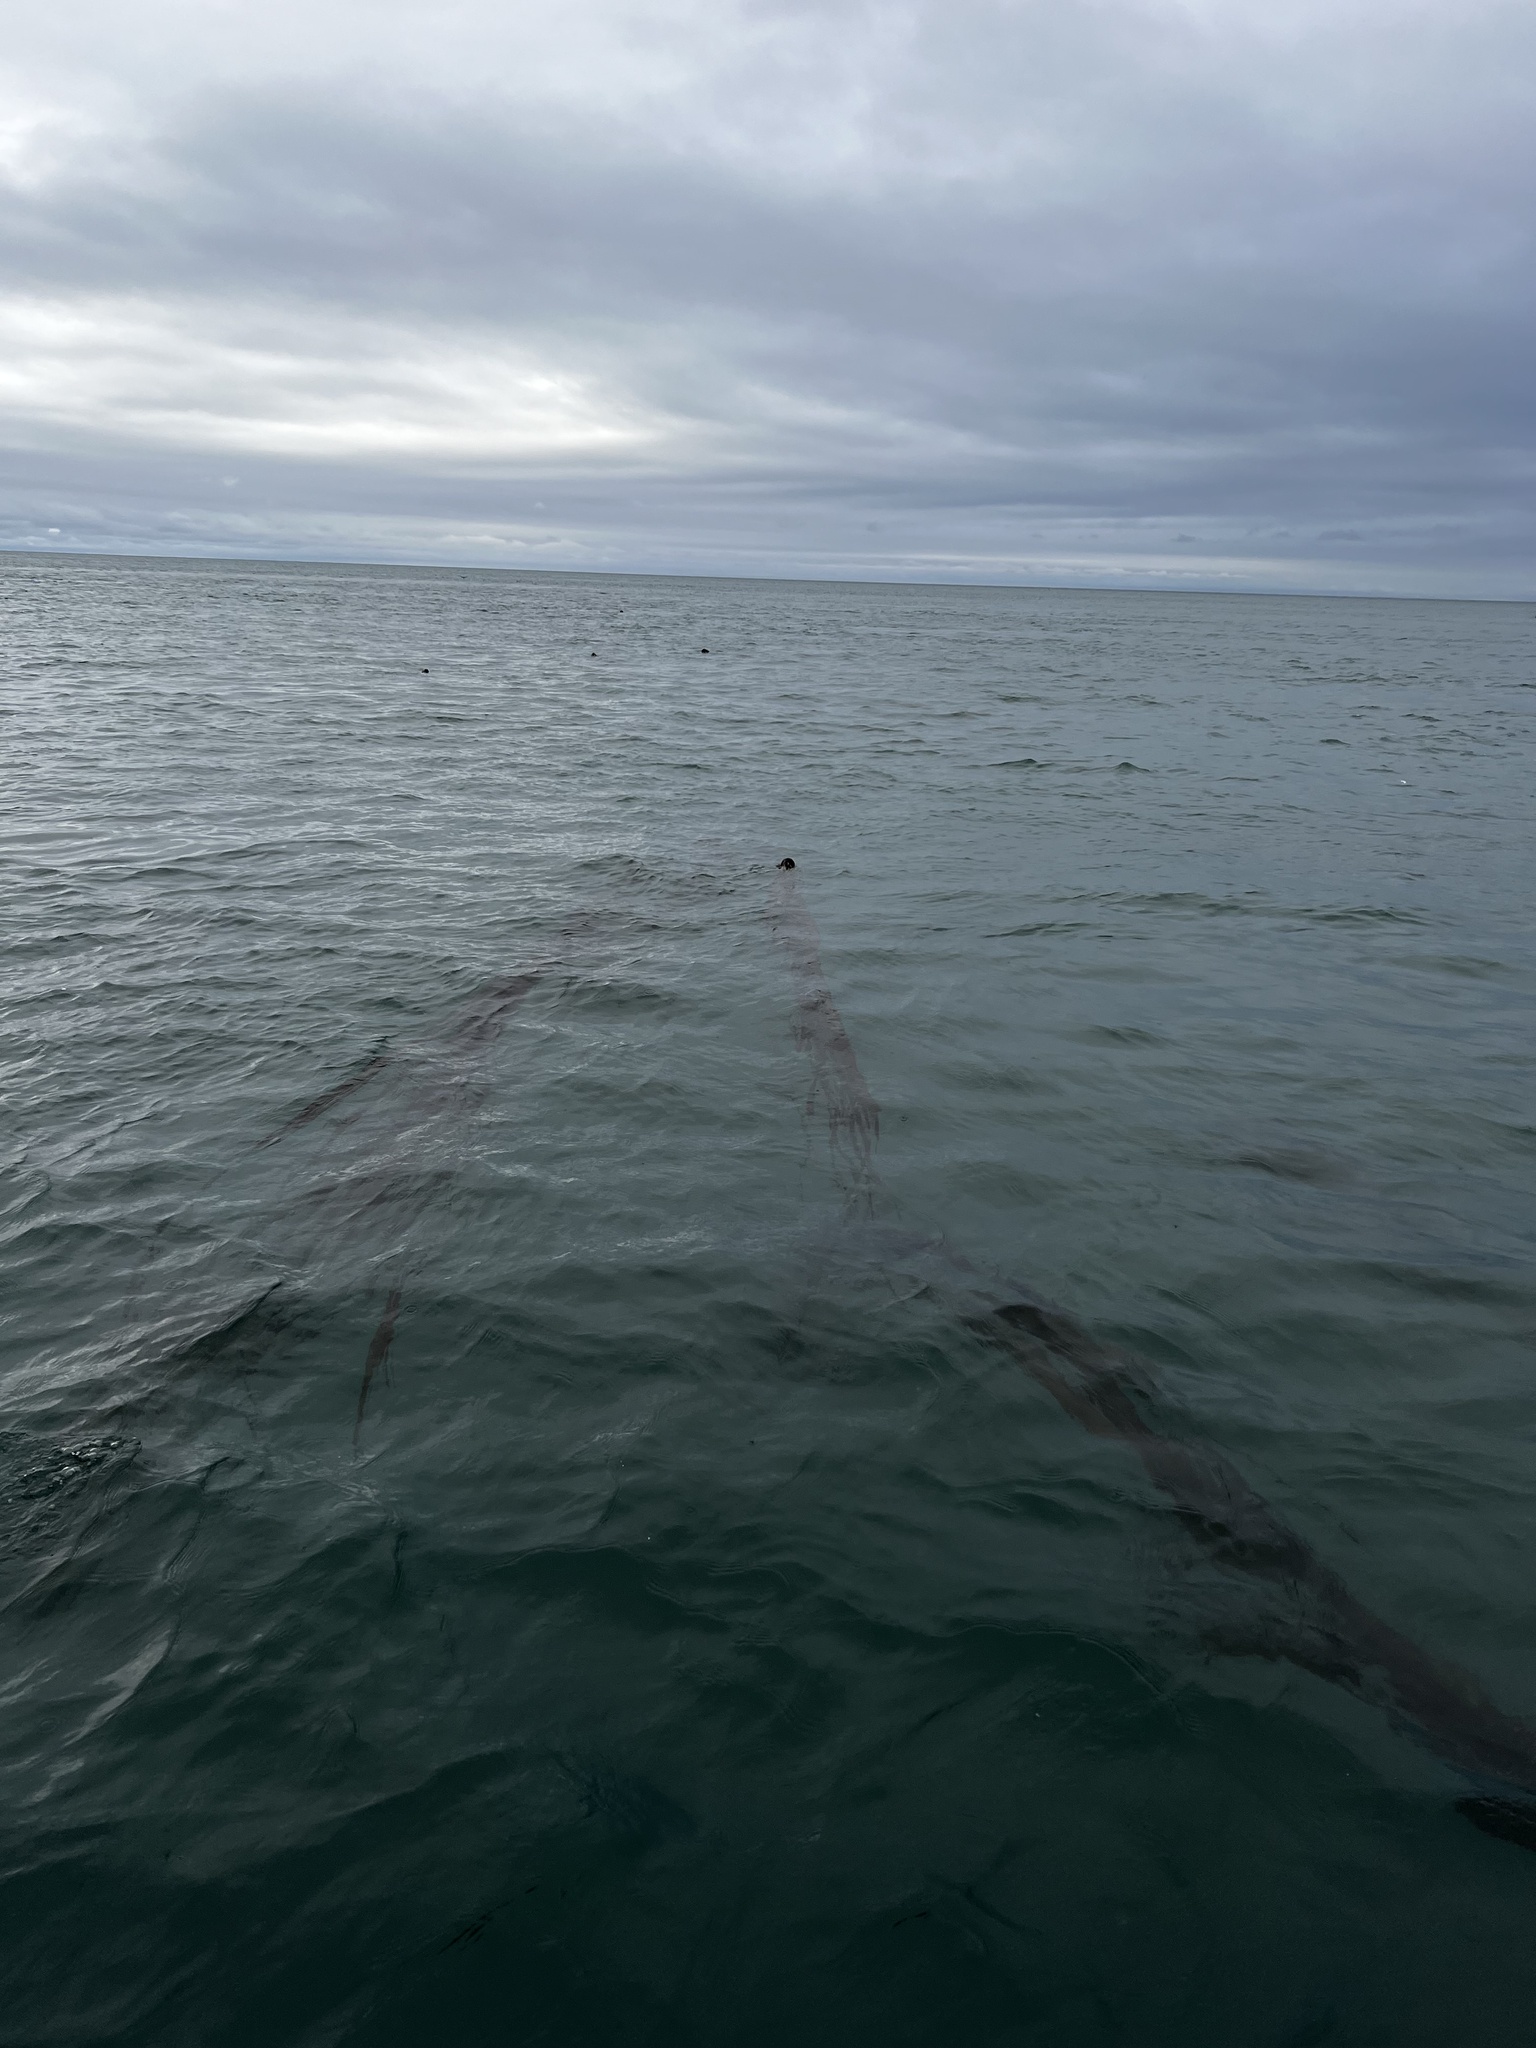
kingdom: Chromista
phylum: Ochrophyta
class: Phaeophyceae
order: Laminariales
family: Laminariaceae
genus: Nereocystis
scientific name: Nereocystis luetkeana
